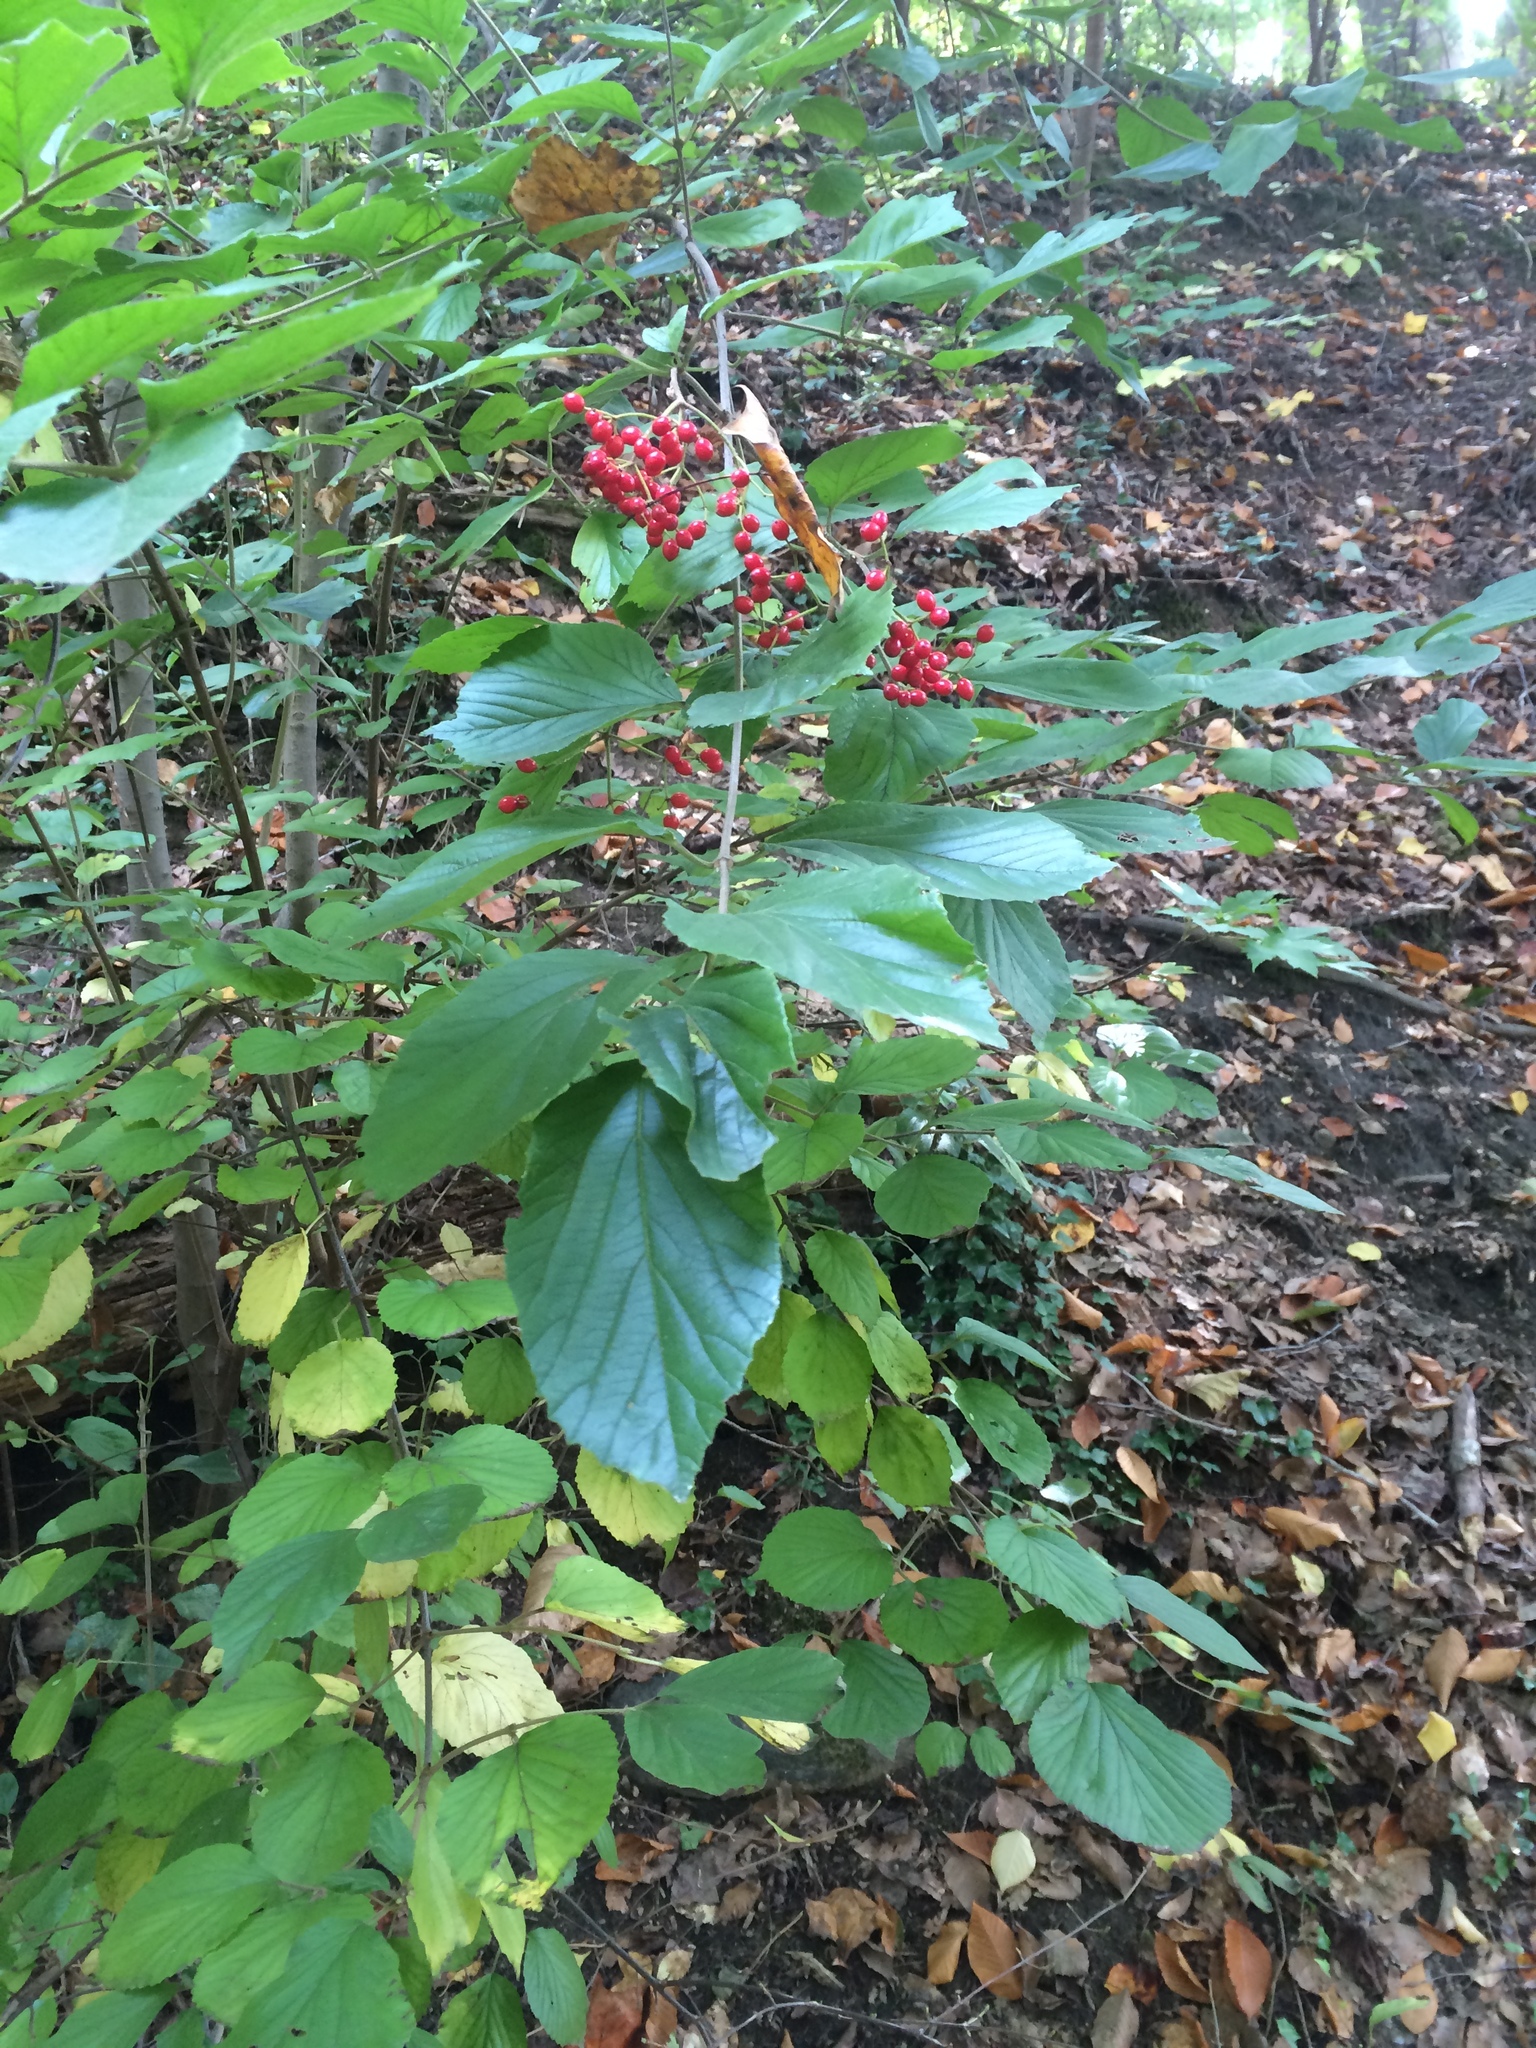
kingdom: Plantae
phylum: Tracheophyta
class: Magnoliopsida
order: Dipsacales
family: Viburnaceae
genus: Viburnum
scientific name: Viburnum dilatatum
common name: Linden arrowwood
